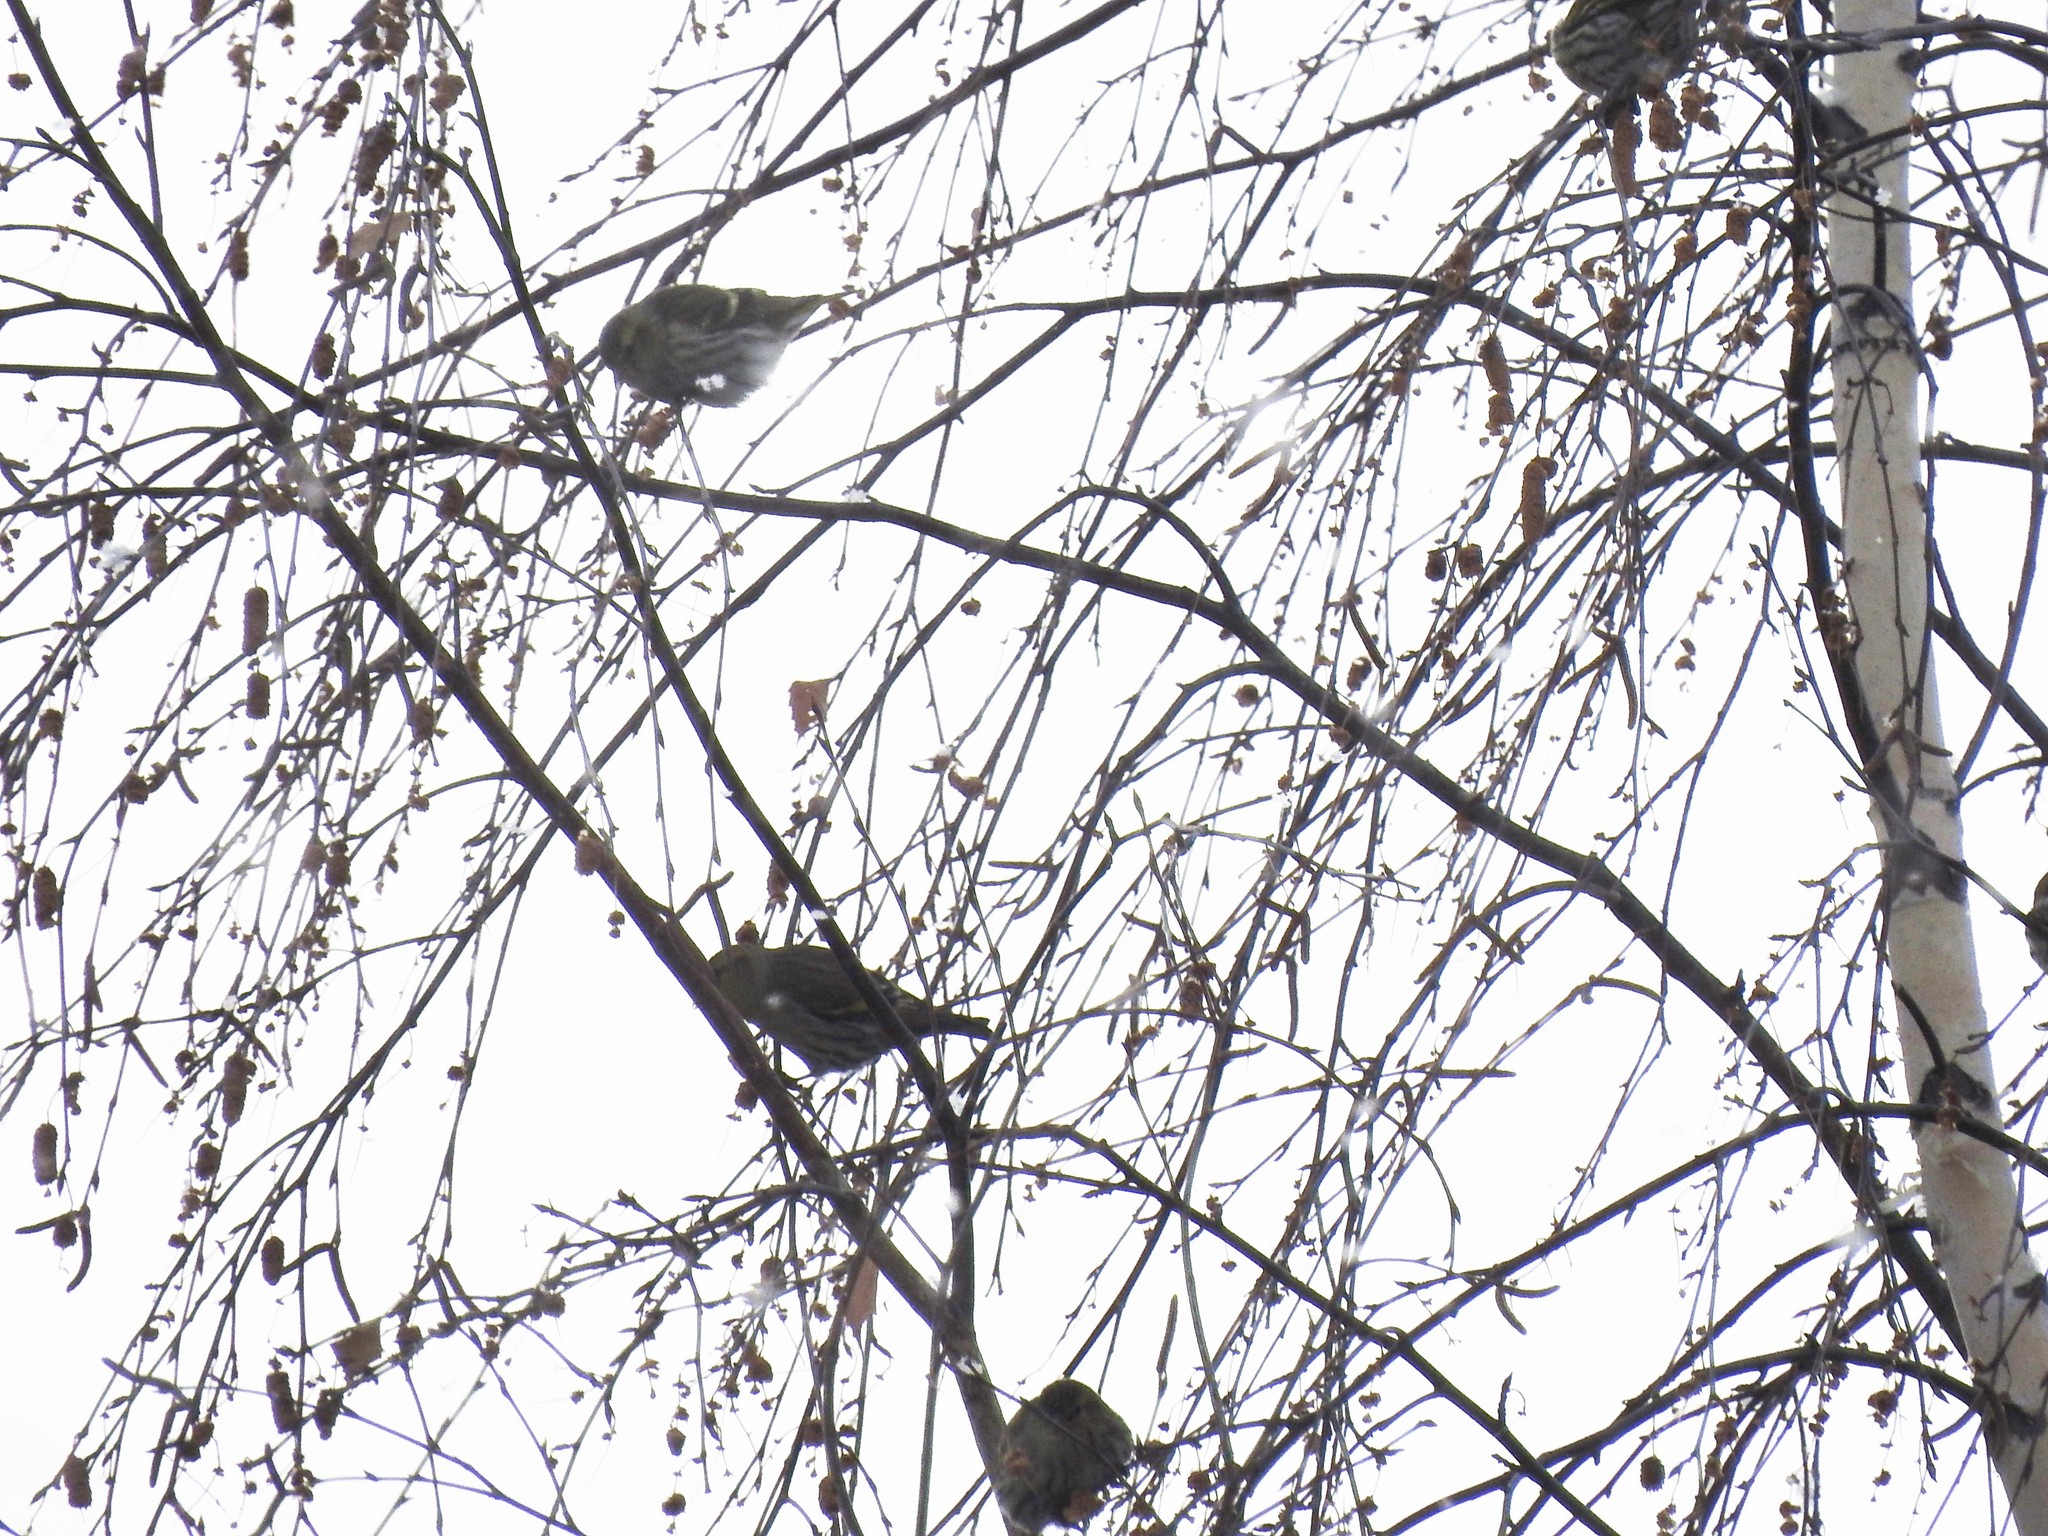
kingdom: Animalia
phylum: Chordata
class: Aves
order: Passeriformes
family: Fringillidae
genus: Spinus
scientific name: Spinus spinus
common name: Eurasian siskin
